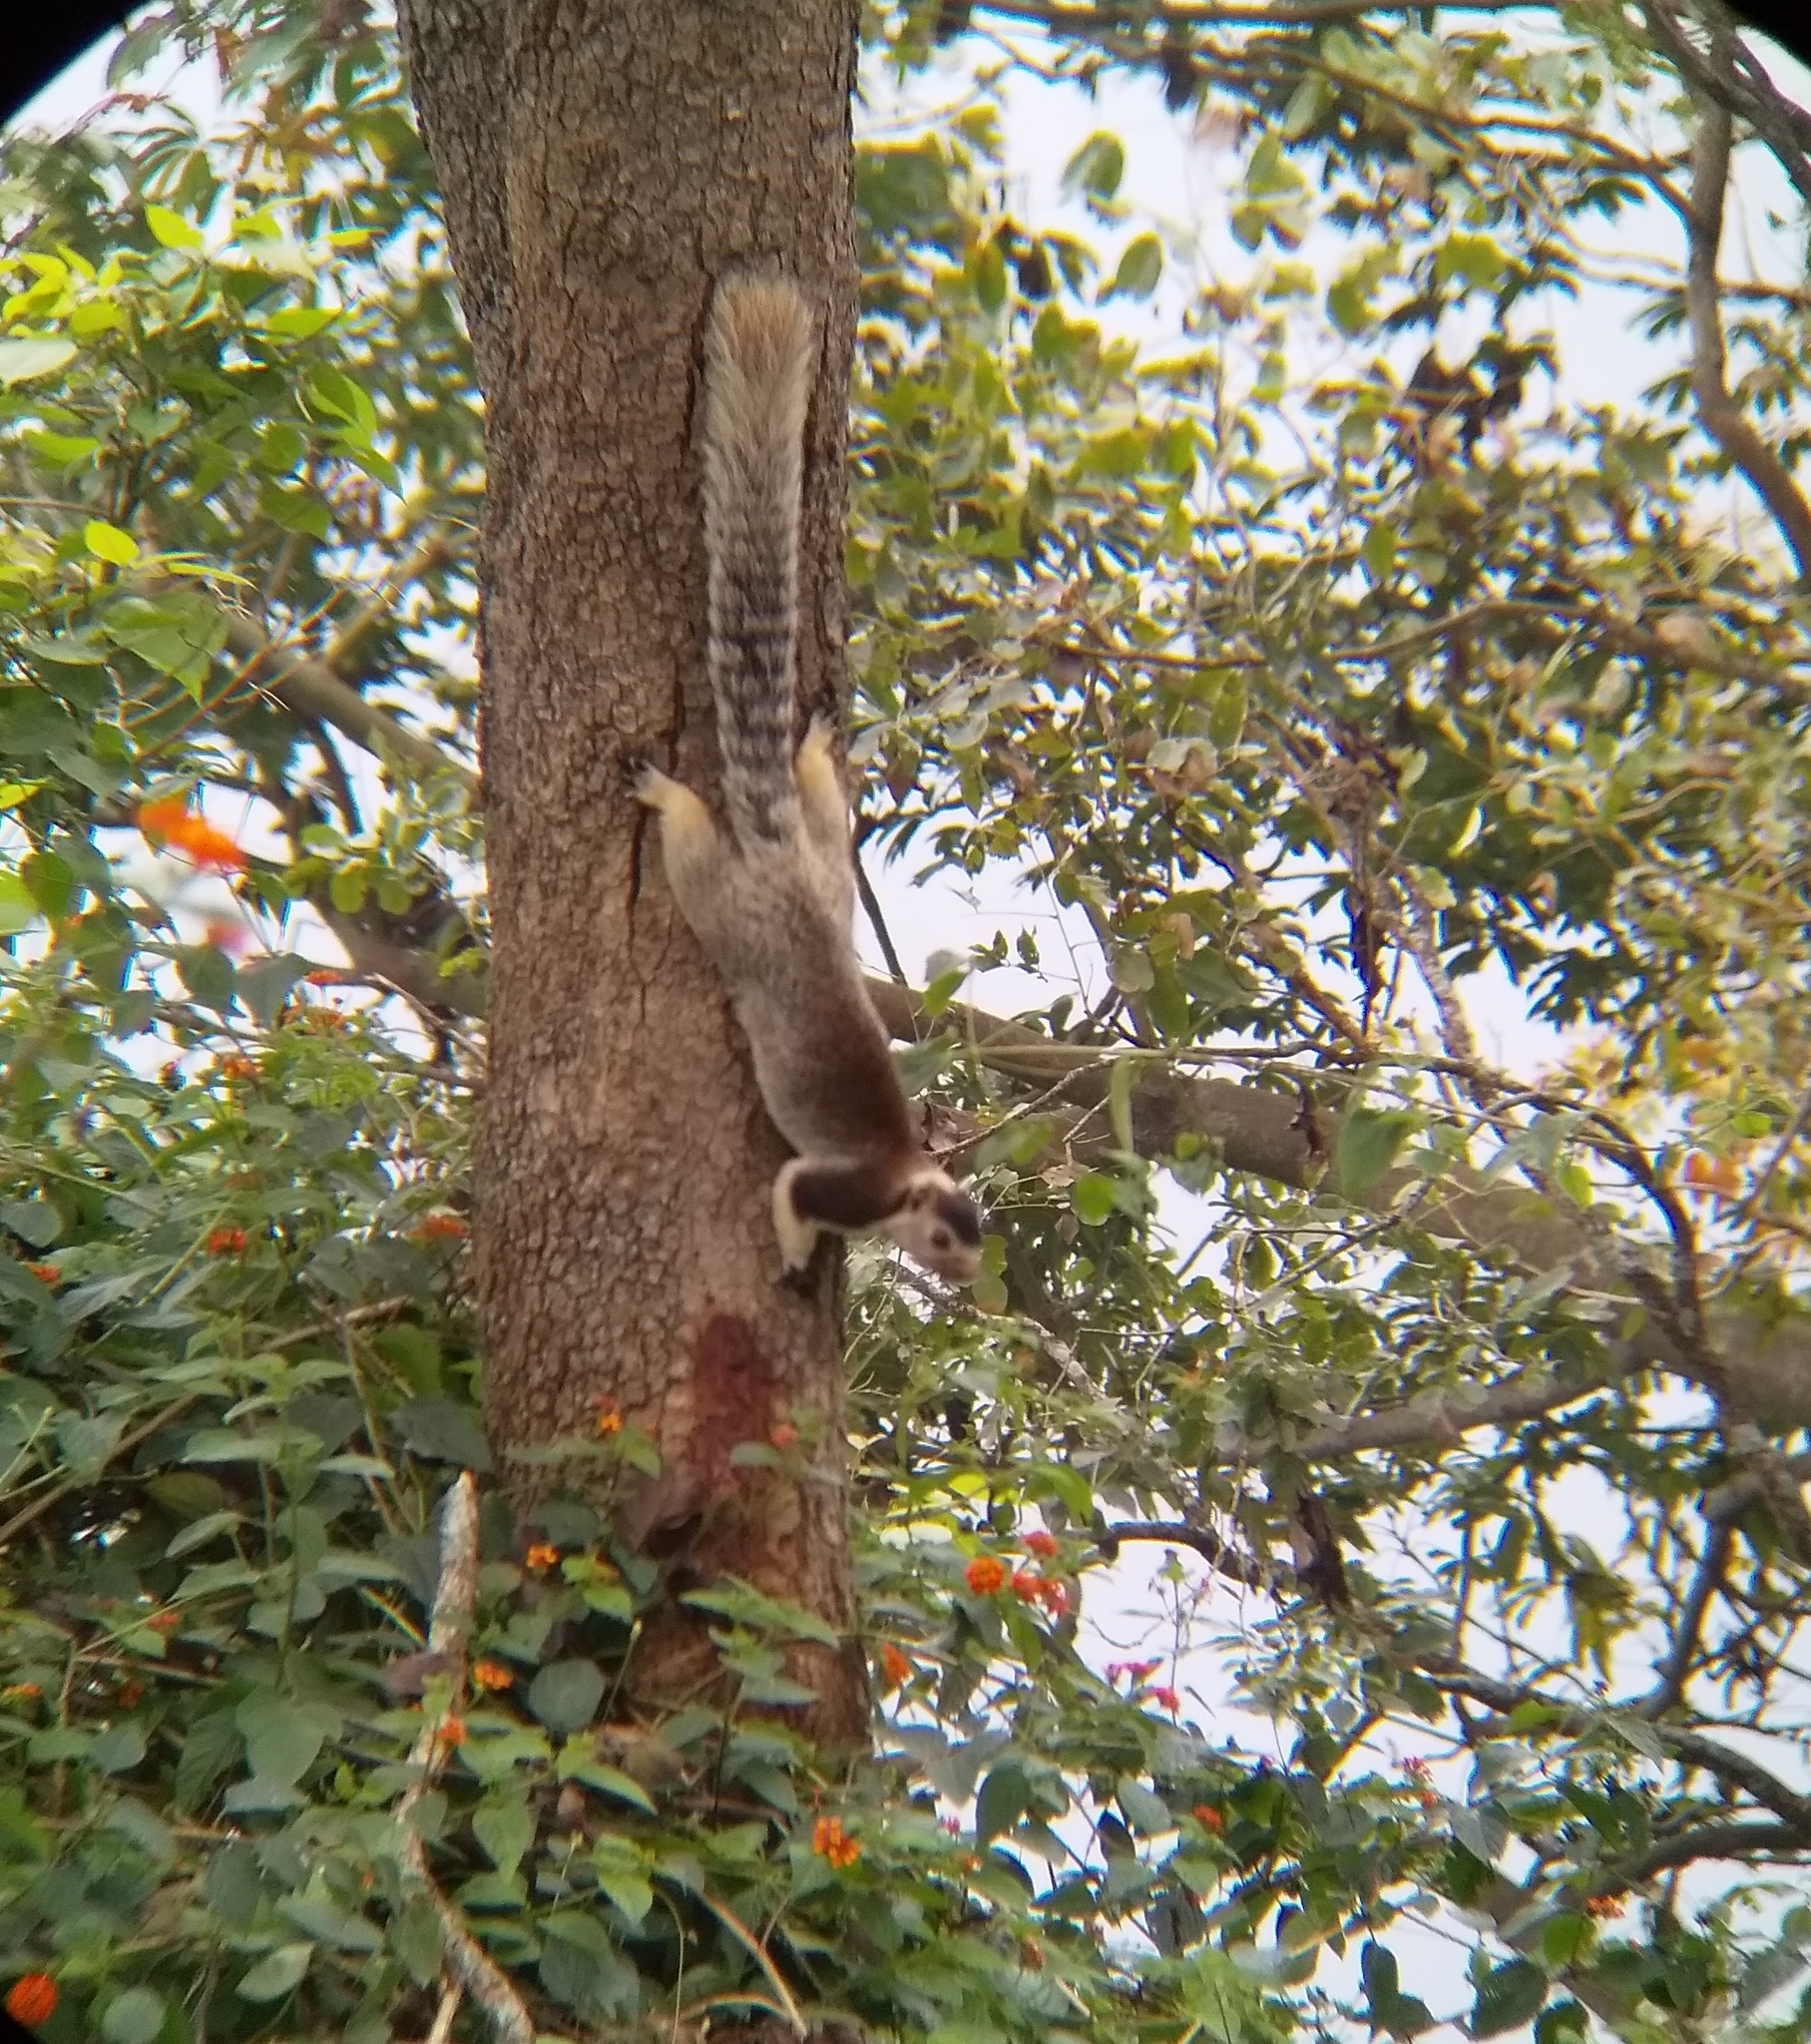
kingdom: Animalia
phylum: Chordata
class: Mammalia
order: Rodentia
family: Sciuridae
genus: Ratufa
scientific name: Ratufa macroura
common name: Sri lankan giant squirrel
